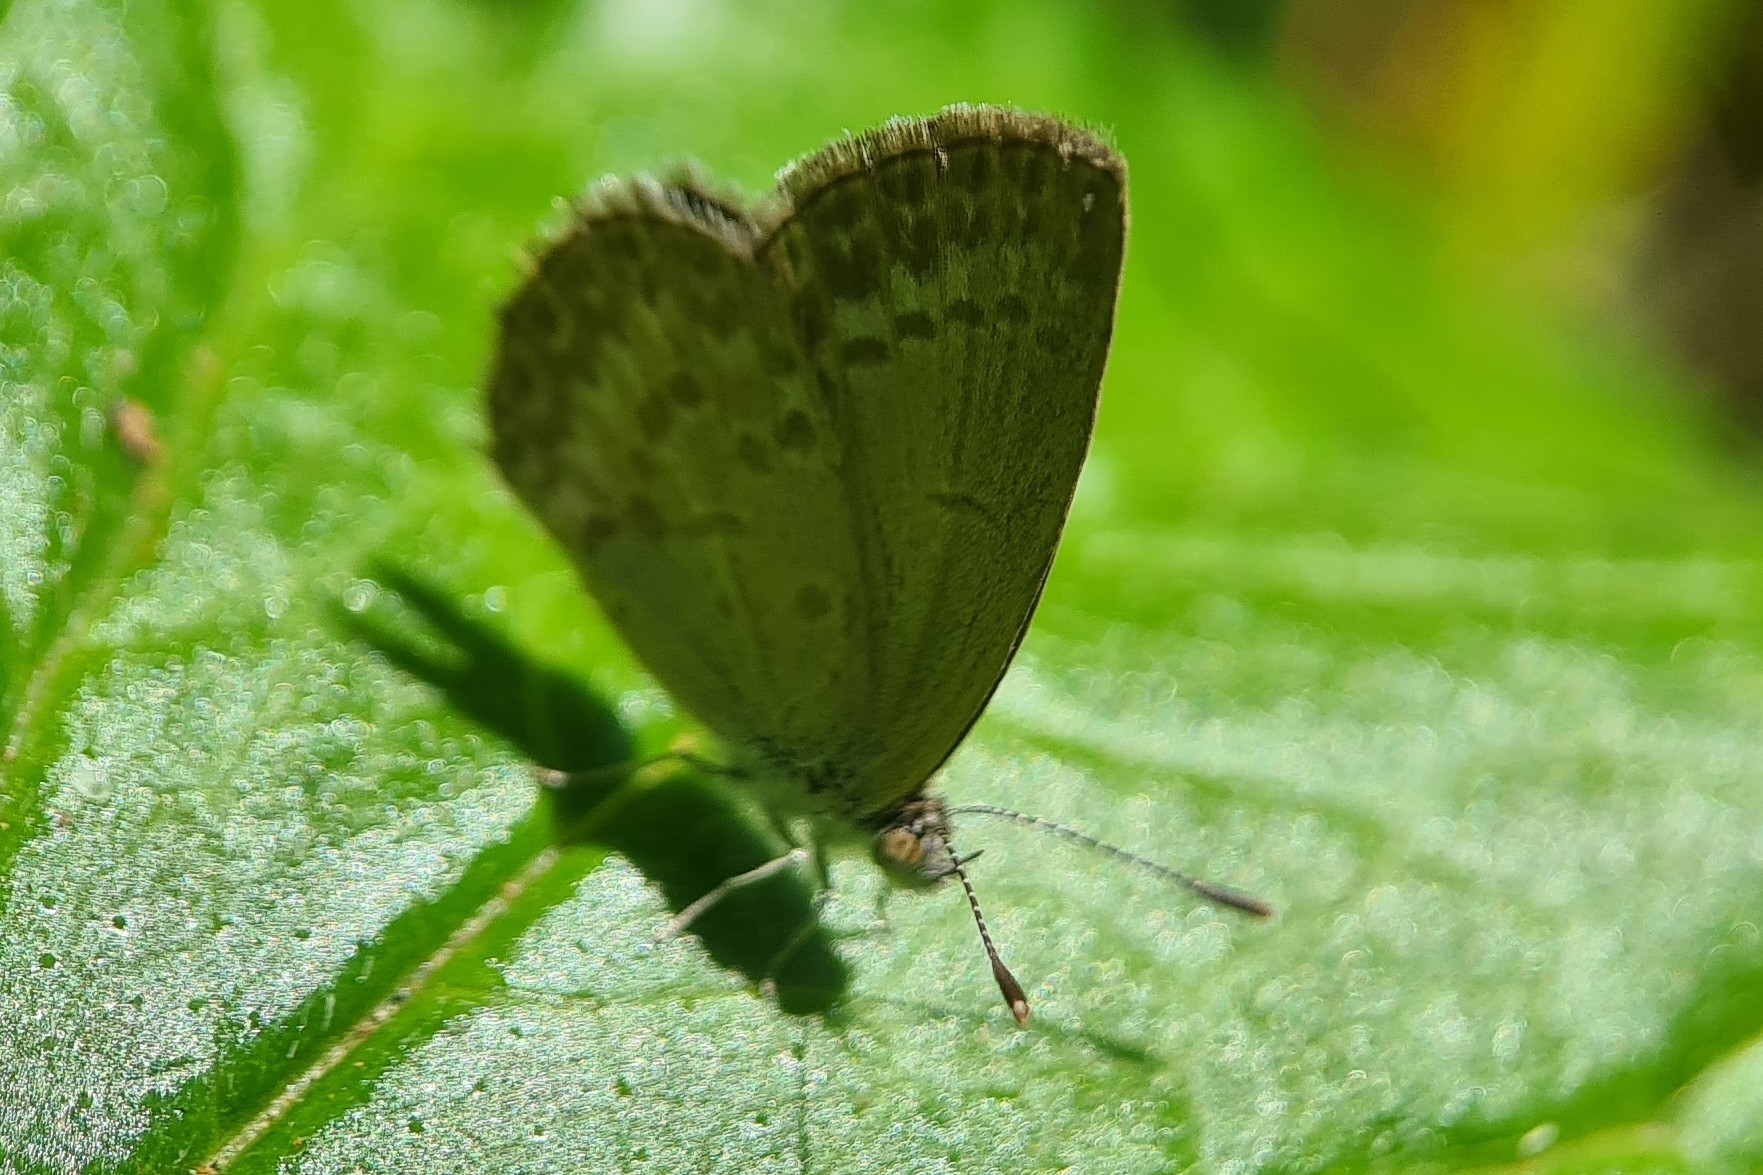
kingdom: Animalia
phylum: Arthropoda
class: Insecta
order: Lepidoptera
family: Lycaenidae
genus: Zizina
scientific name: Zizina otis
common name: Lesser grass blue
